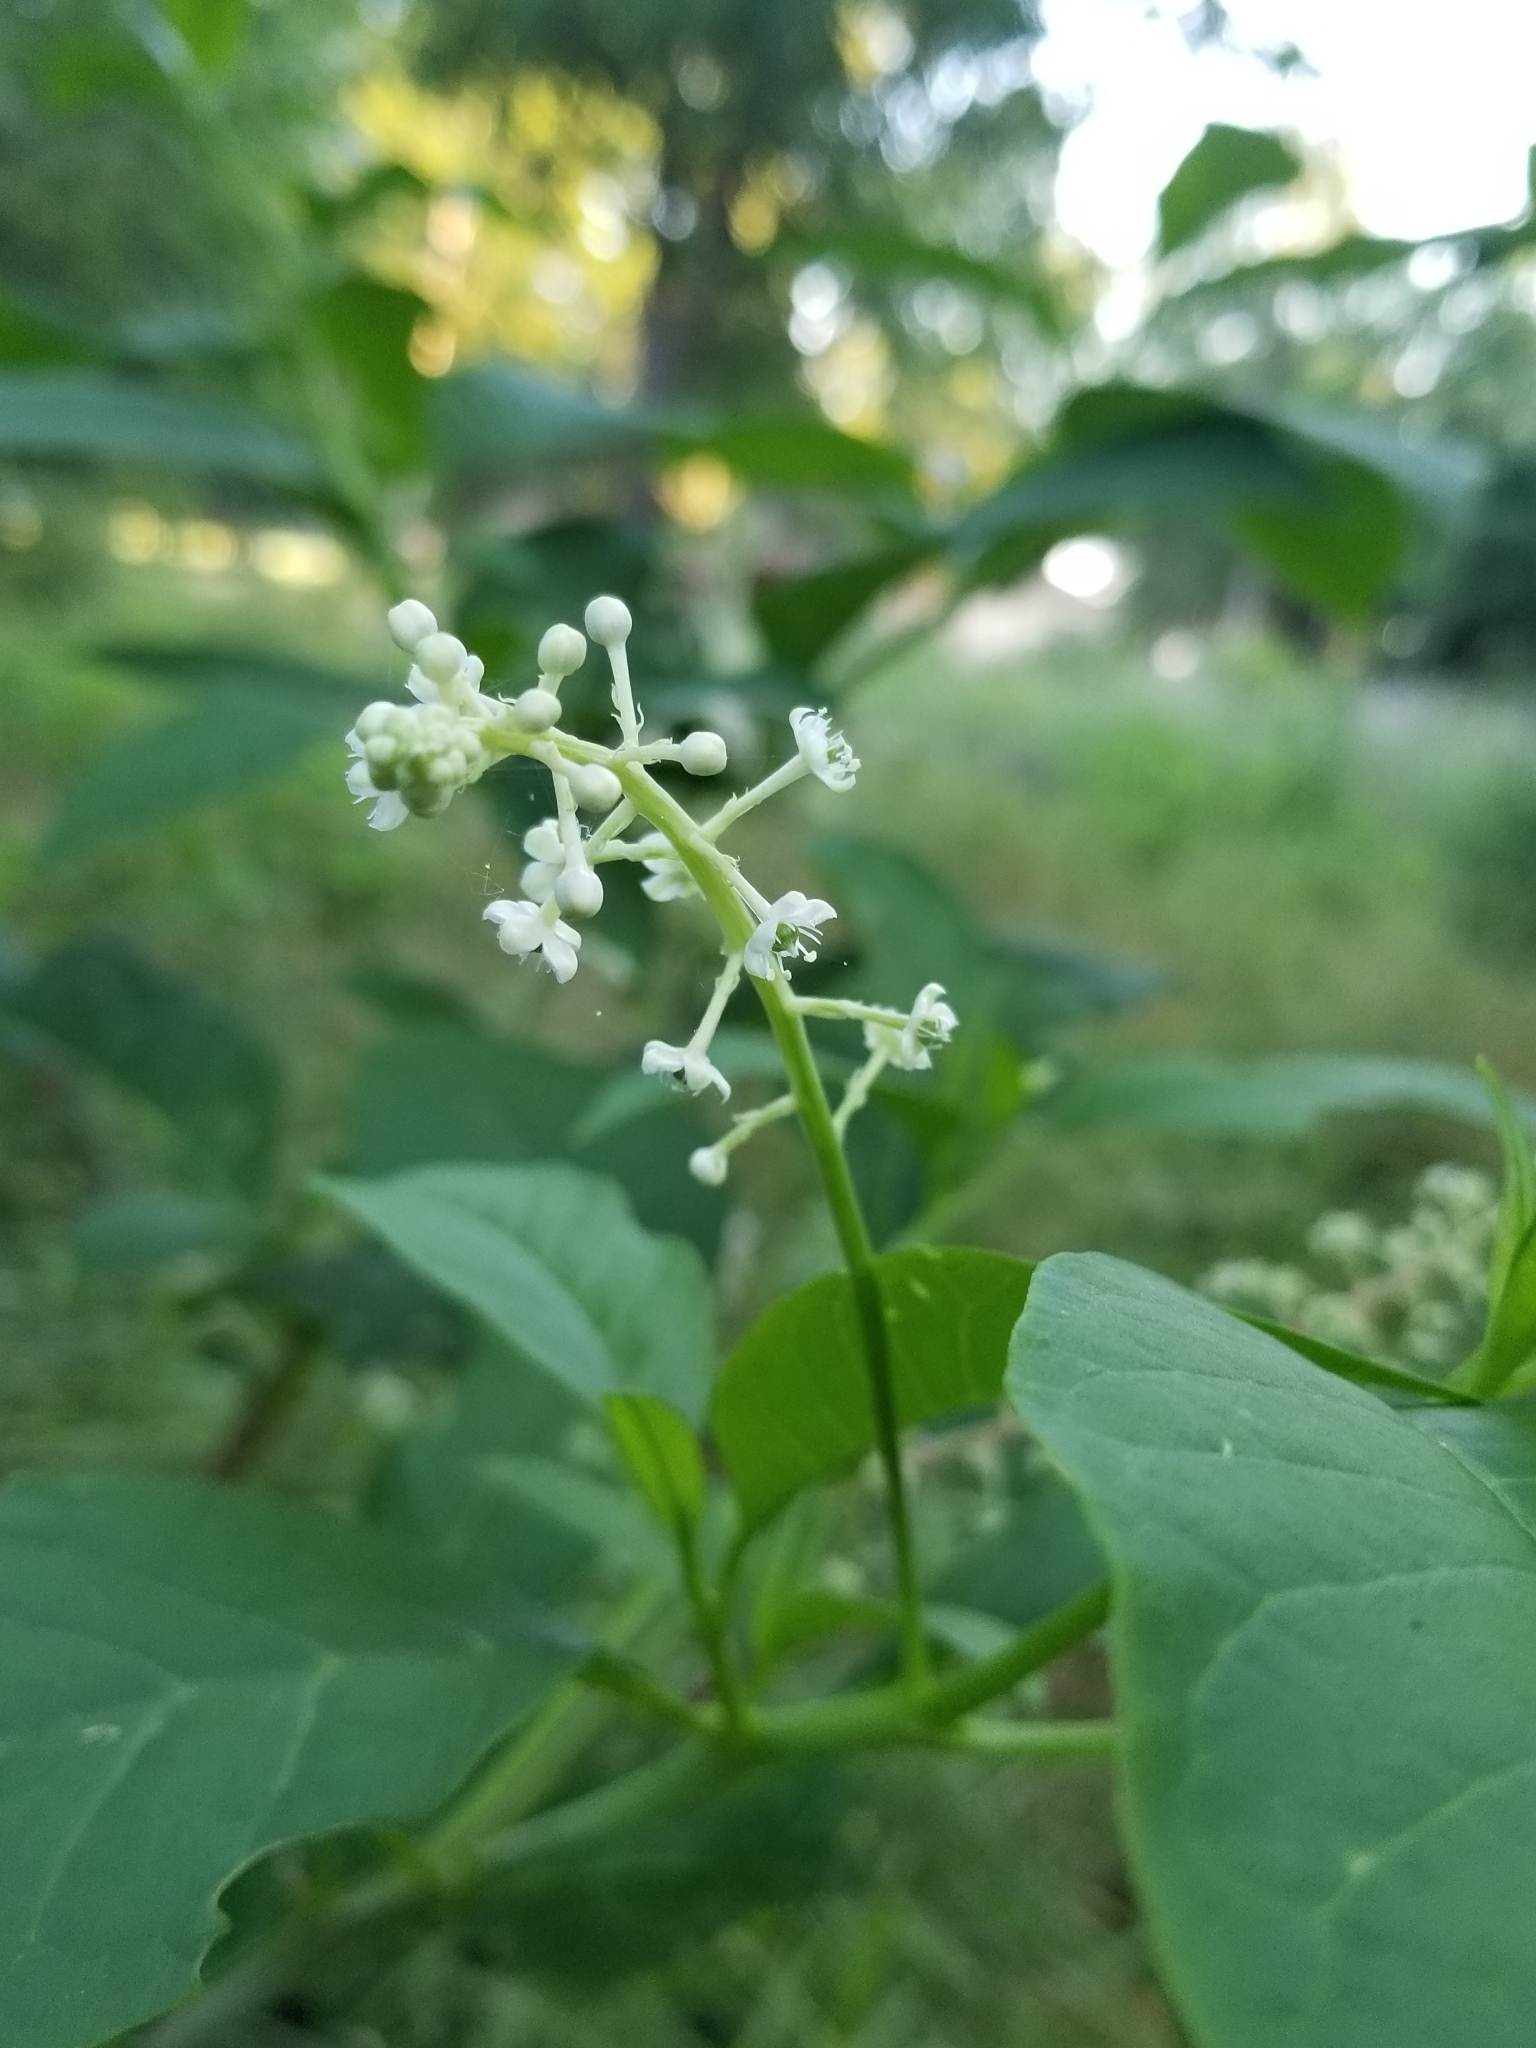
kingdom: Plantae
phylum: Tracheophyta
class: Magnoliopsida
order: Caryophyllales
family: Phytolaccaceae
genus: Phytolacca
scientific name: Phytolacca americana
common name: American pokeweed
